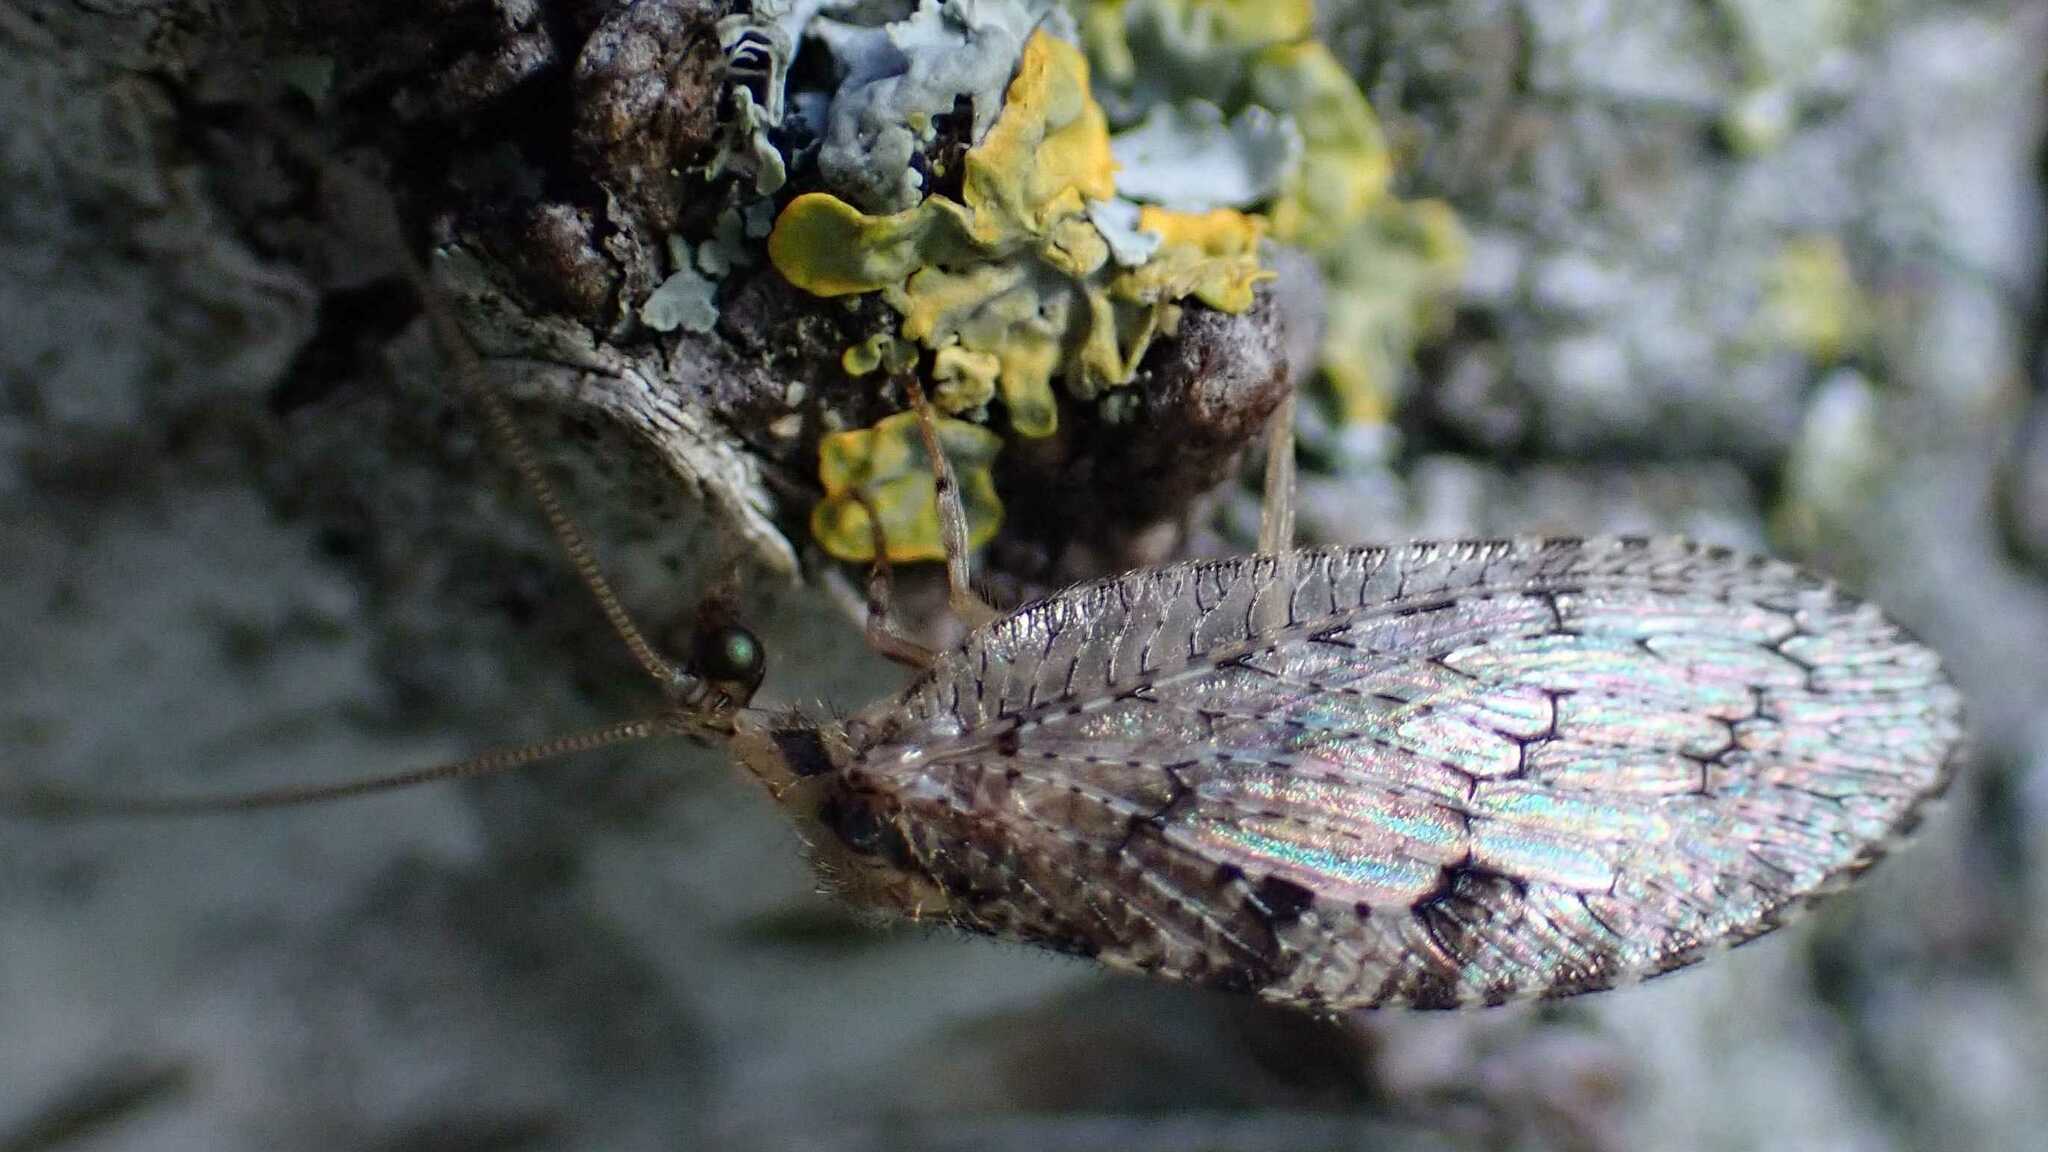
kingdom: Animalia
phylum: Arthropoda
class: Insecta
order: Neuroptera
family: Hemerobiidae
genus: Micromus
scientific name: Micromus variegatus
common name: Brown lacewing
